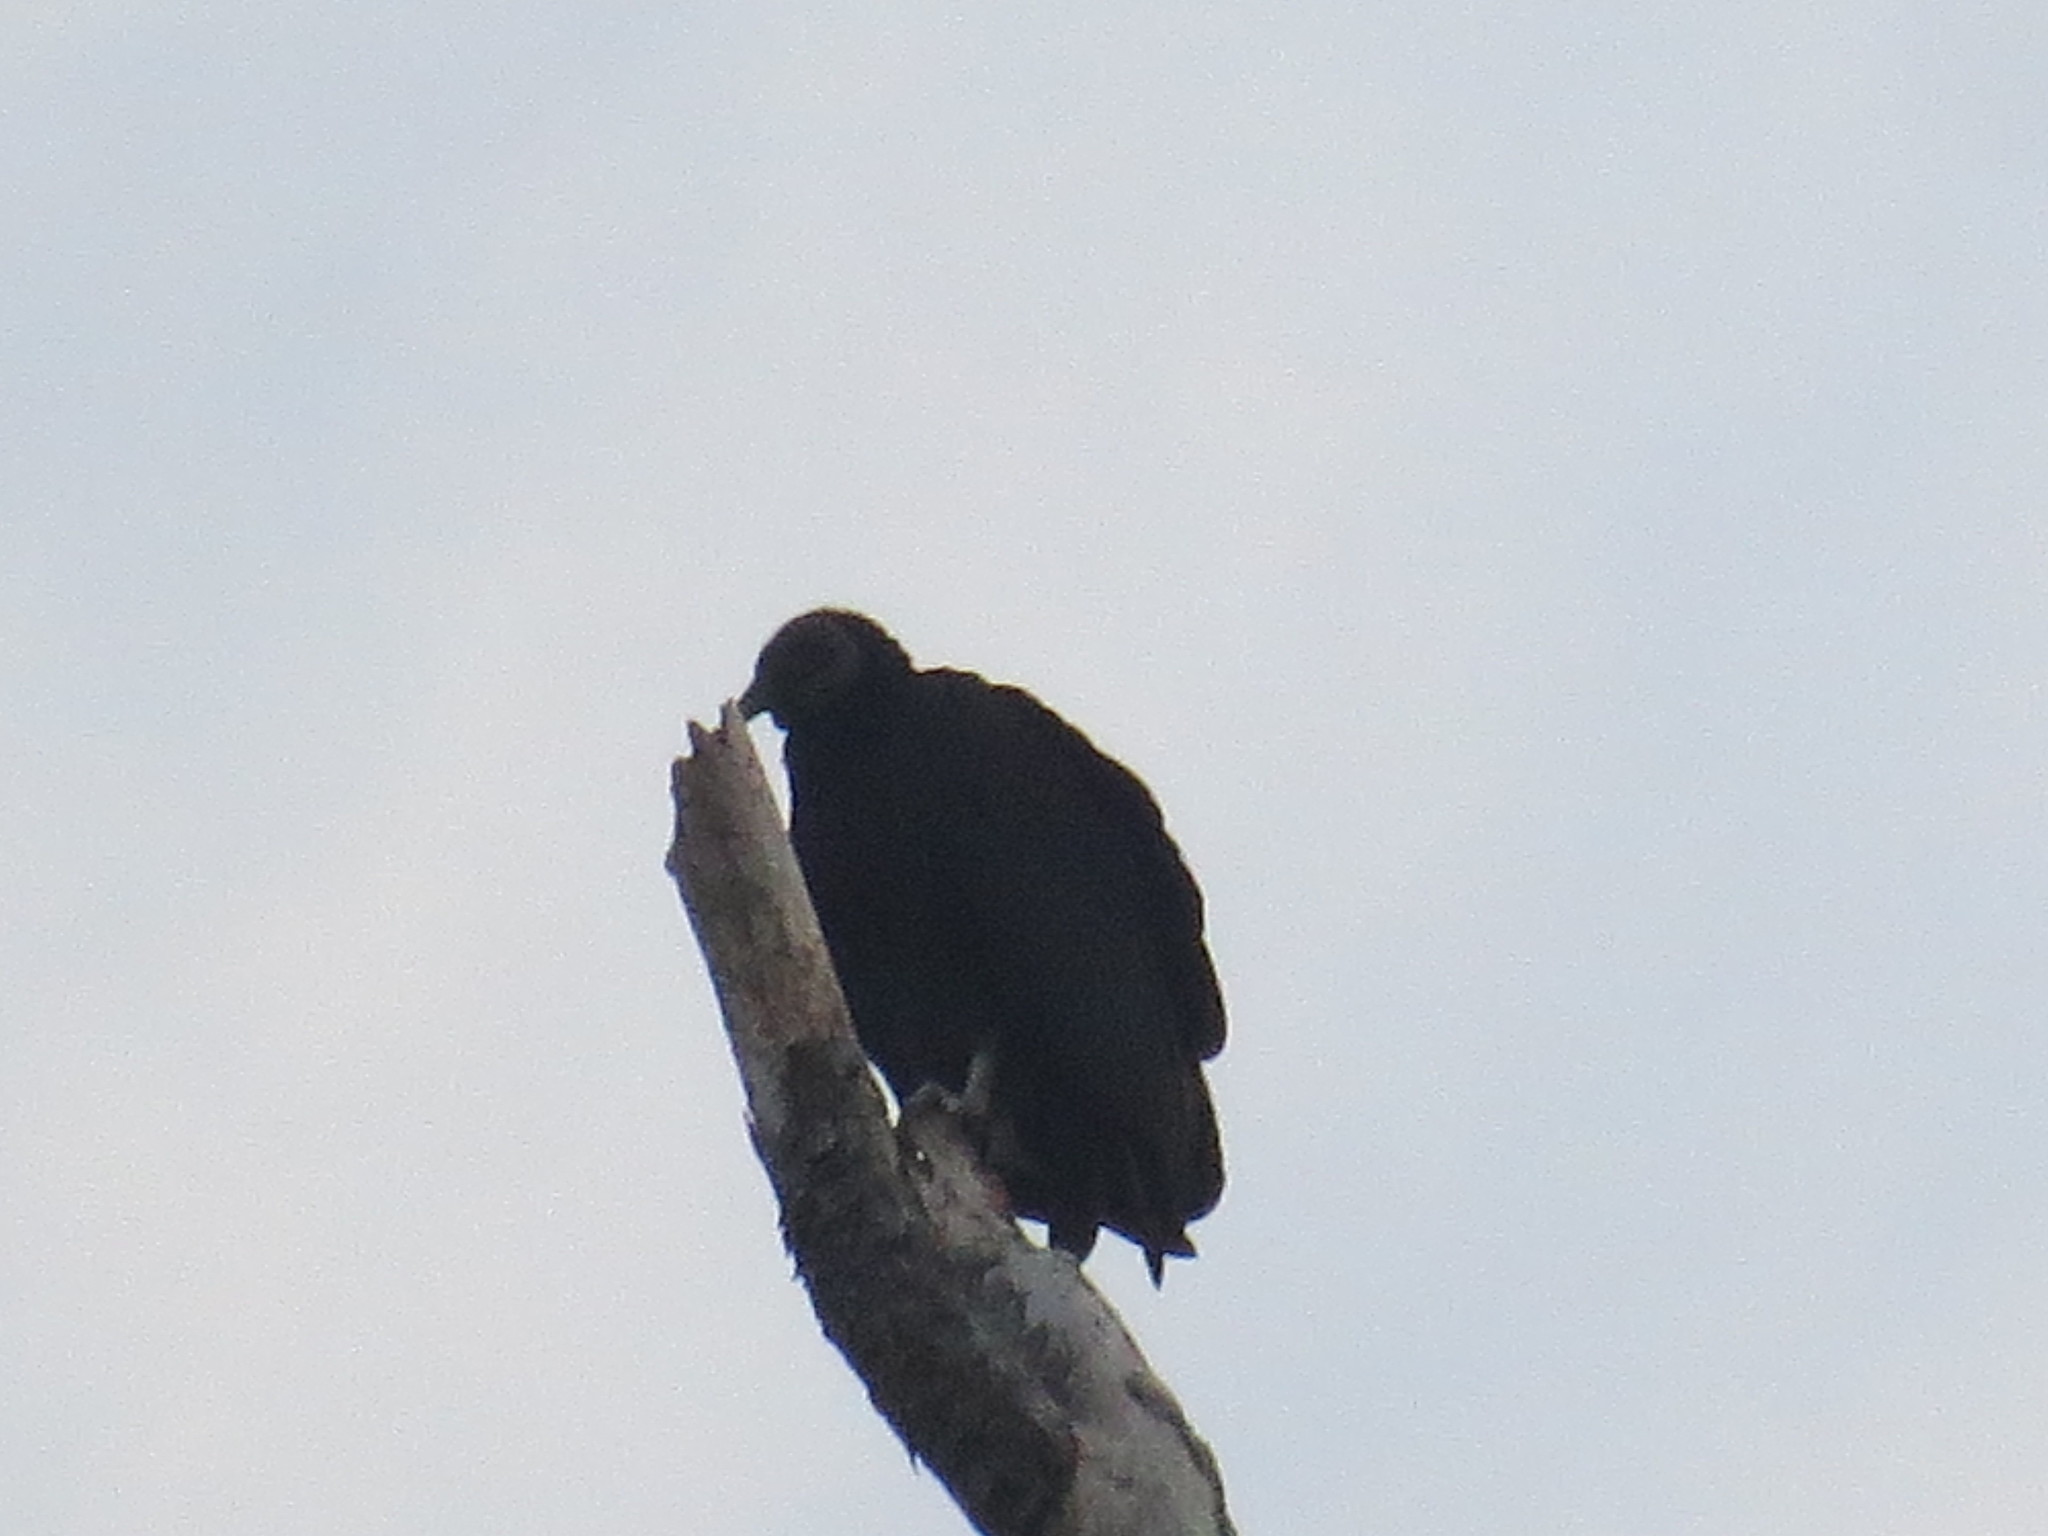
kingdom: Animalia
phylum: Chordata
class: Aves
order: Accipitriformes
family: Cathartidae
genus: Coragyps
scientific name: Coragyps atratus
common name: Black vulture
